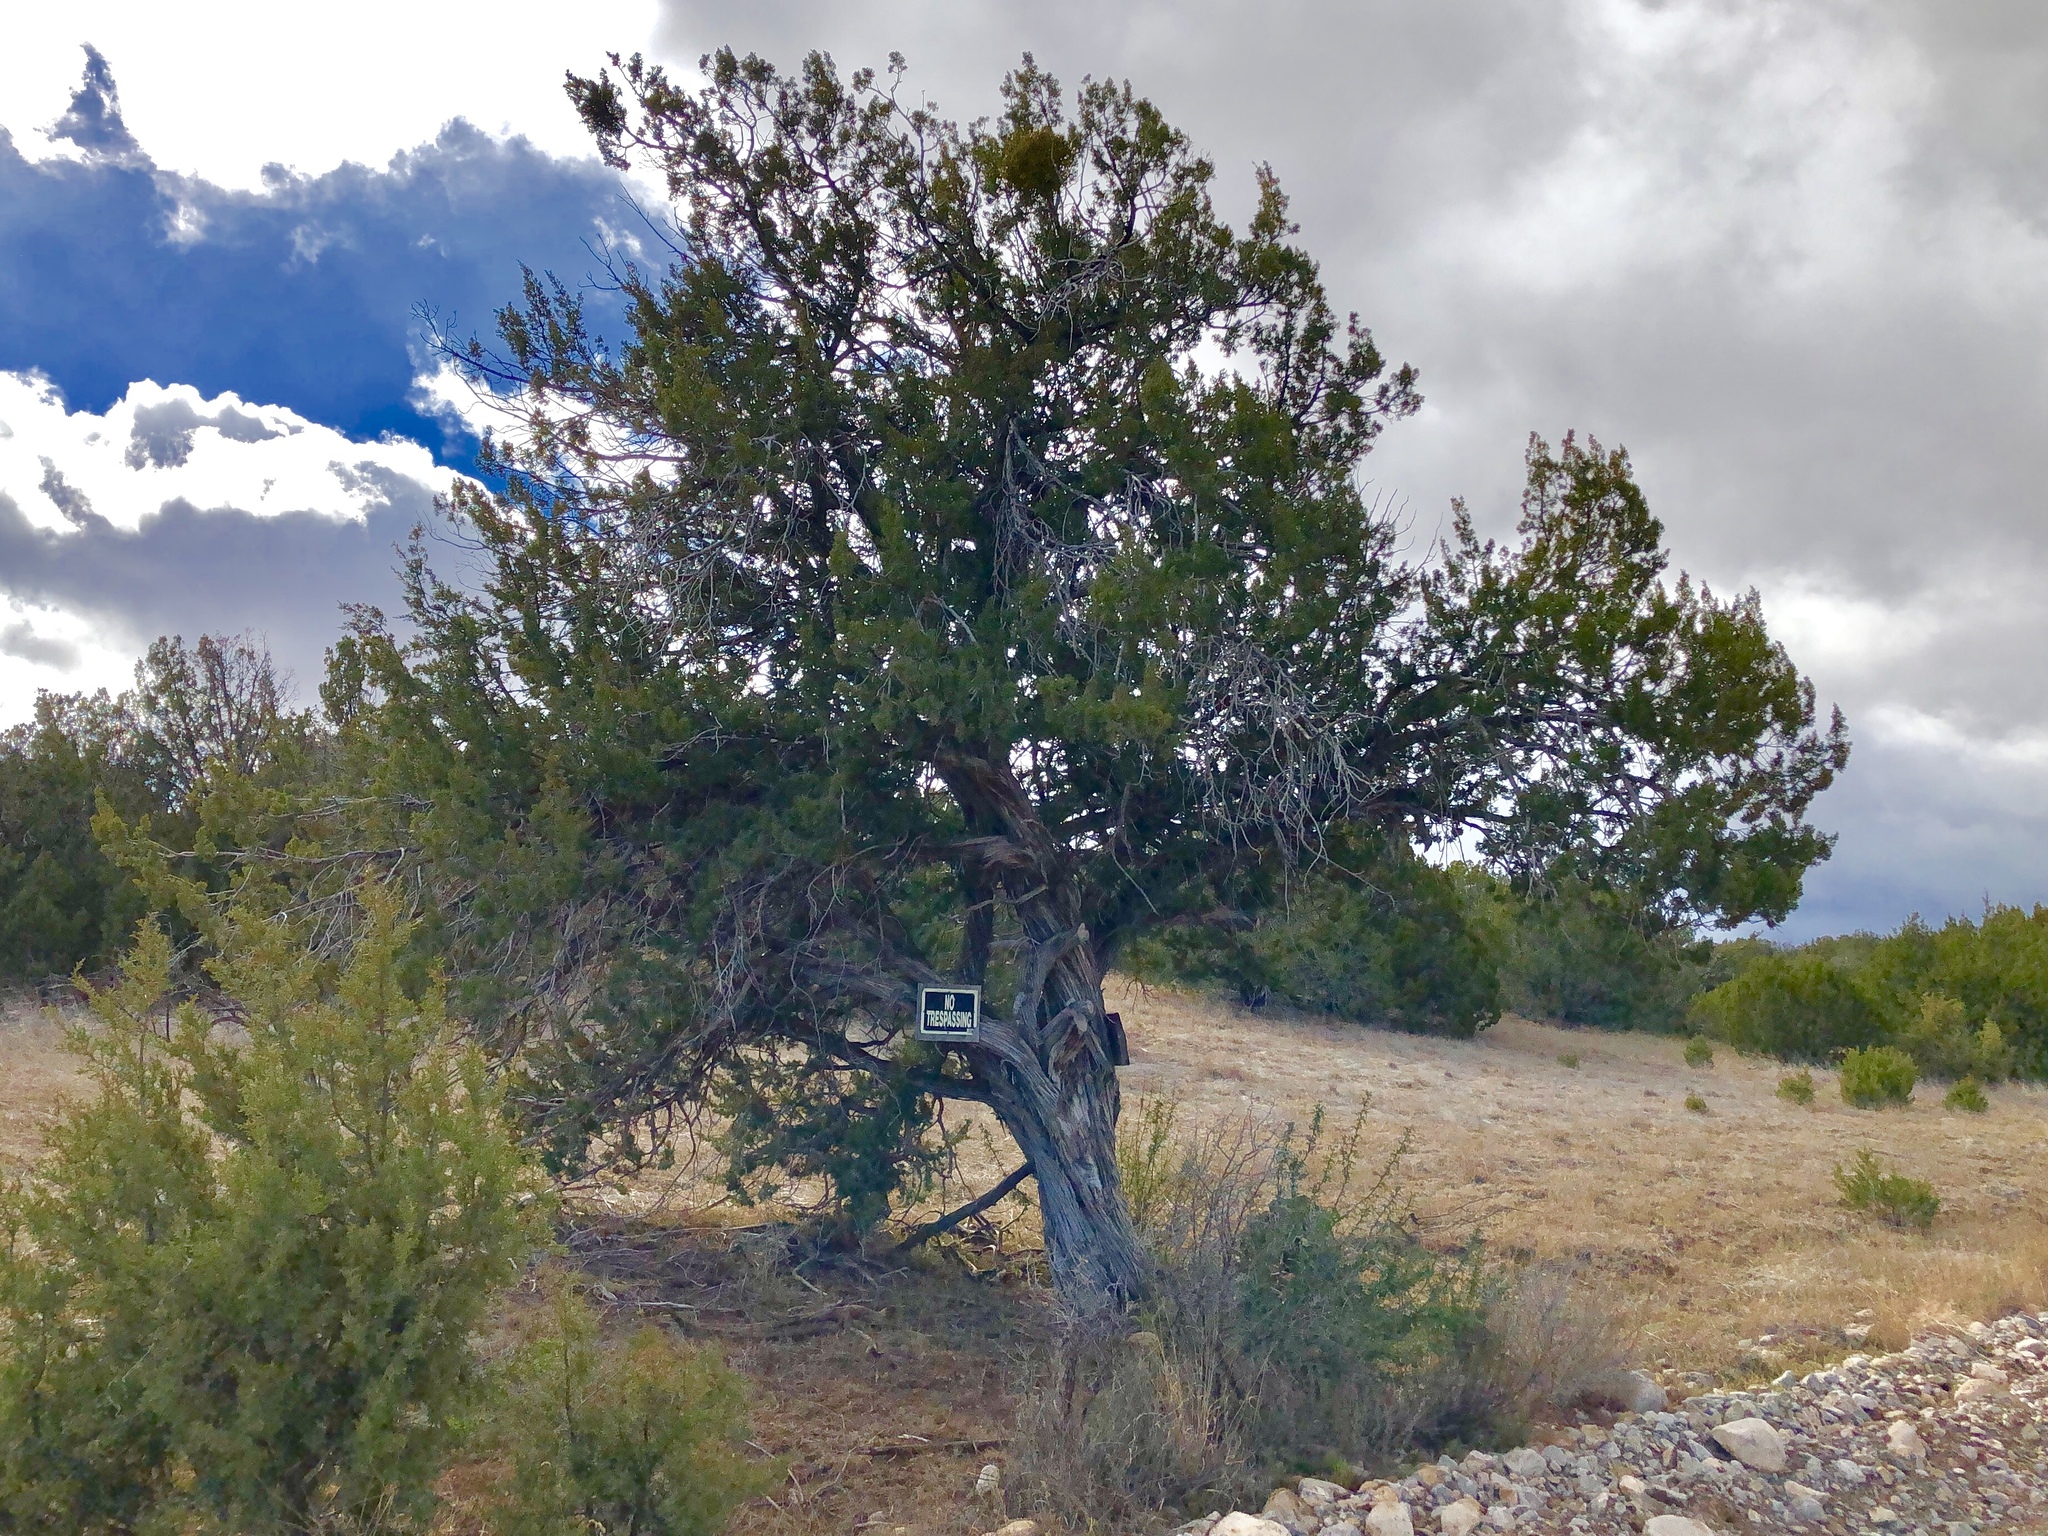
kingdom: Plantae
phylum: Tracheophyta
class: Pinopsida
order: Pinales
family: Cupressaceae
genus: Juniperus
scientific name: Juniperus monosperma
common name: One-seed juniper
